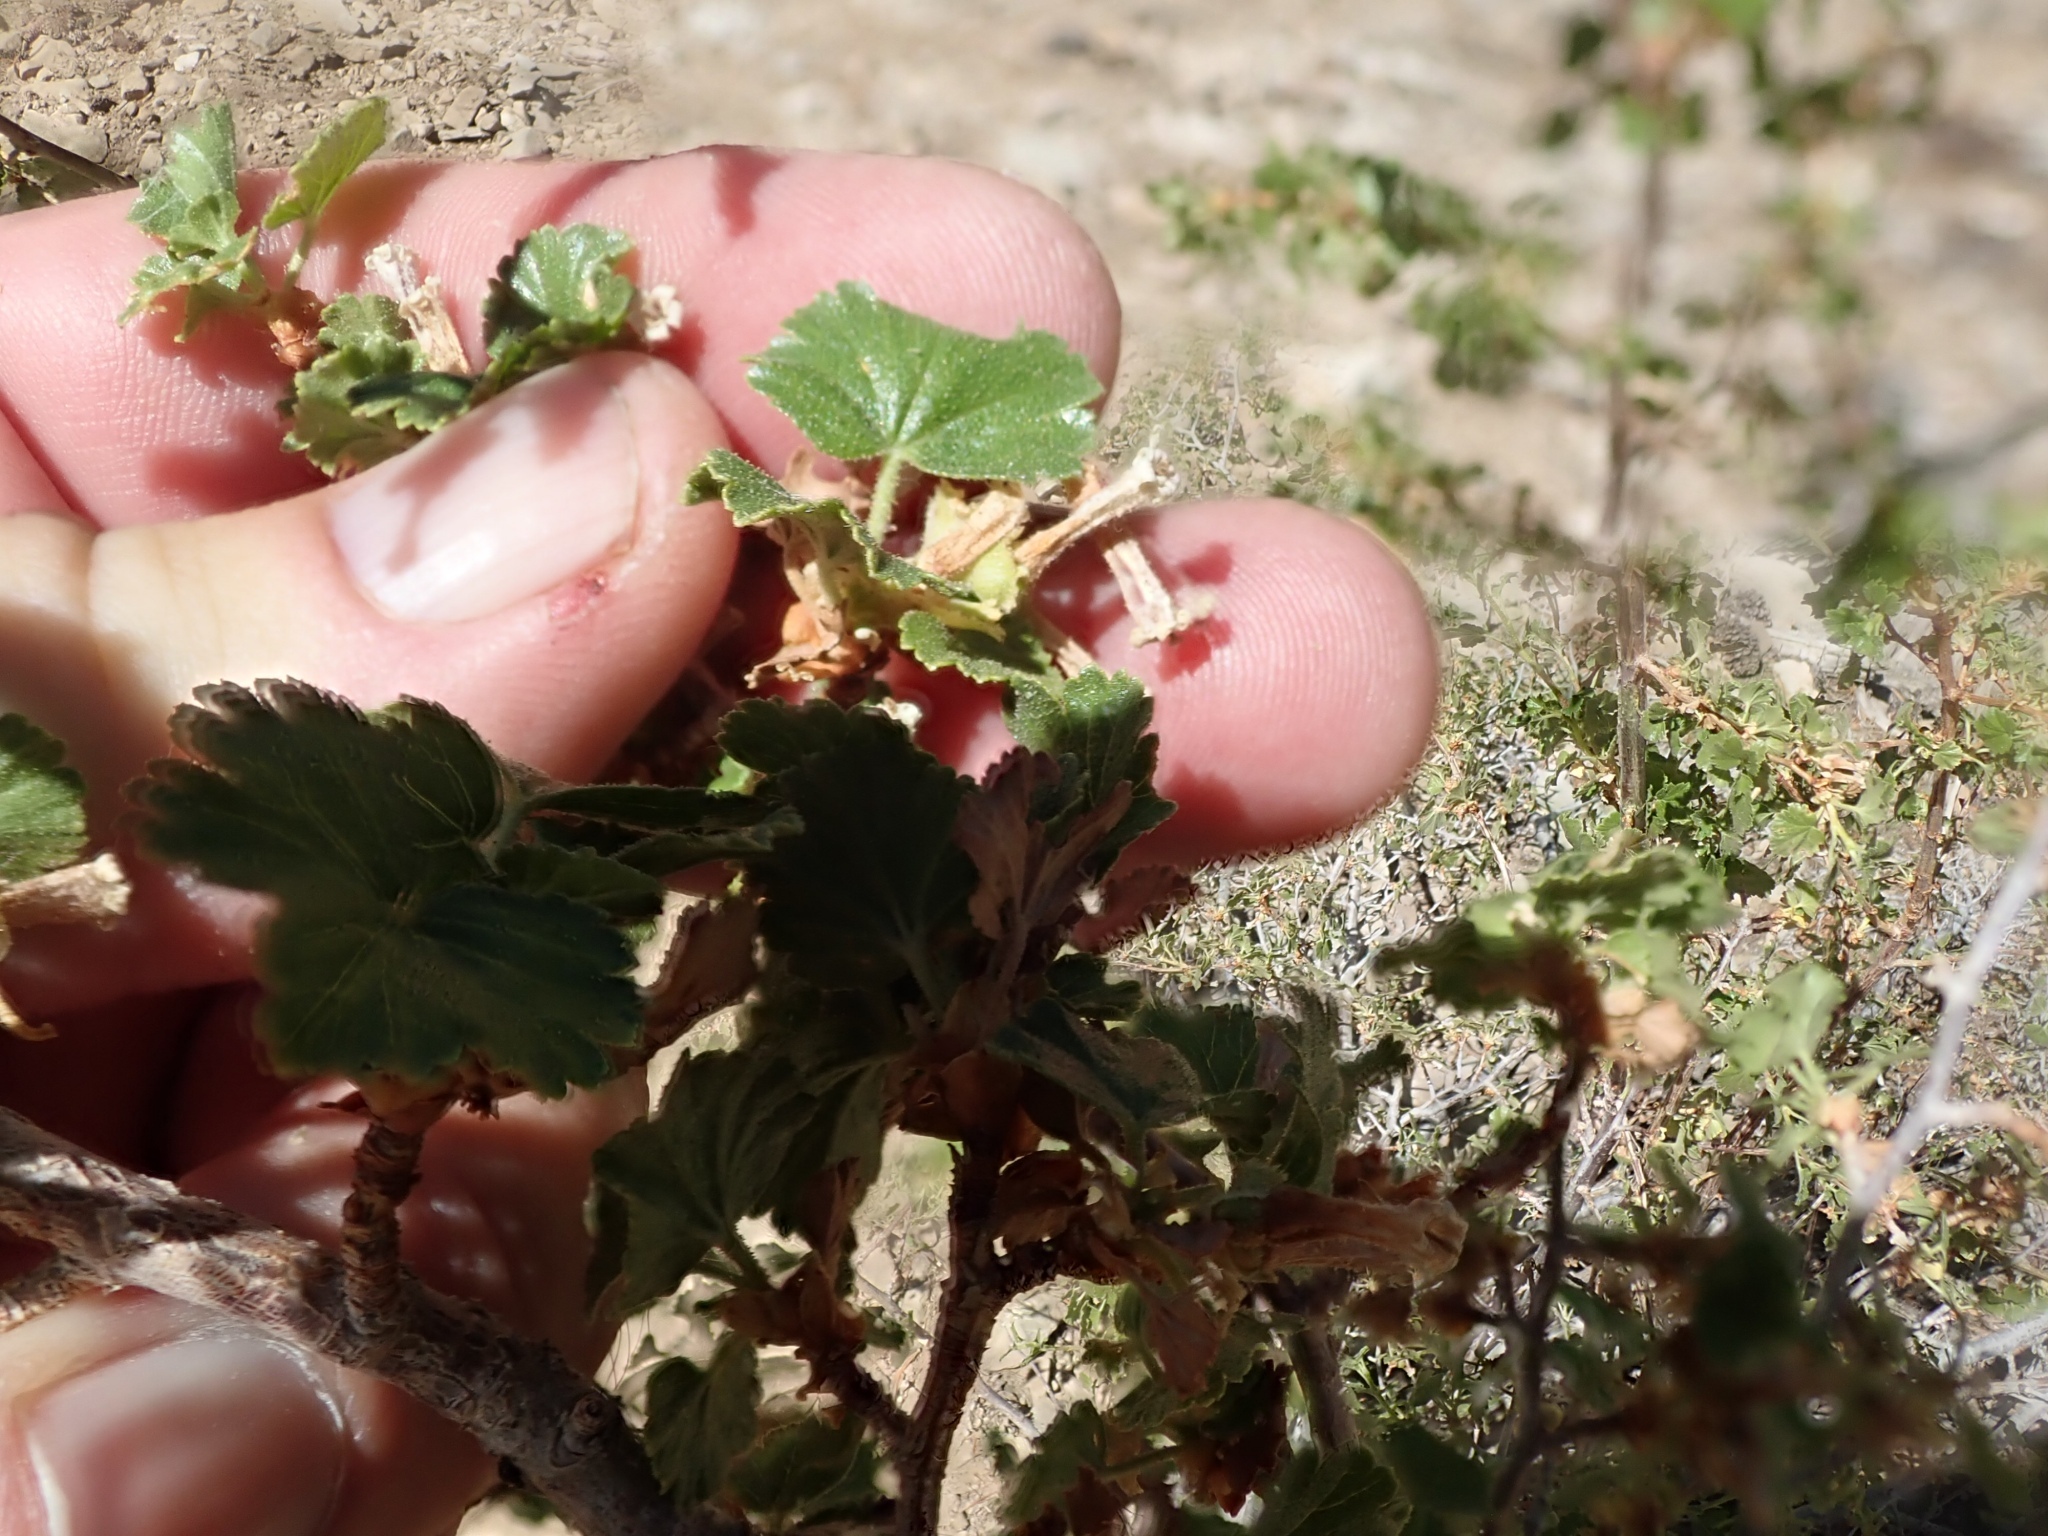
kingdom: Plantae
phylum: Tracheophyta
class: Magnoliopsida
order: Saxifragales
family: Grossulariaceae
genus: Ribes
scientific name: Ribes cereum
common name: Wax currant
